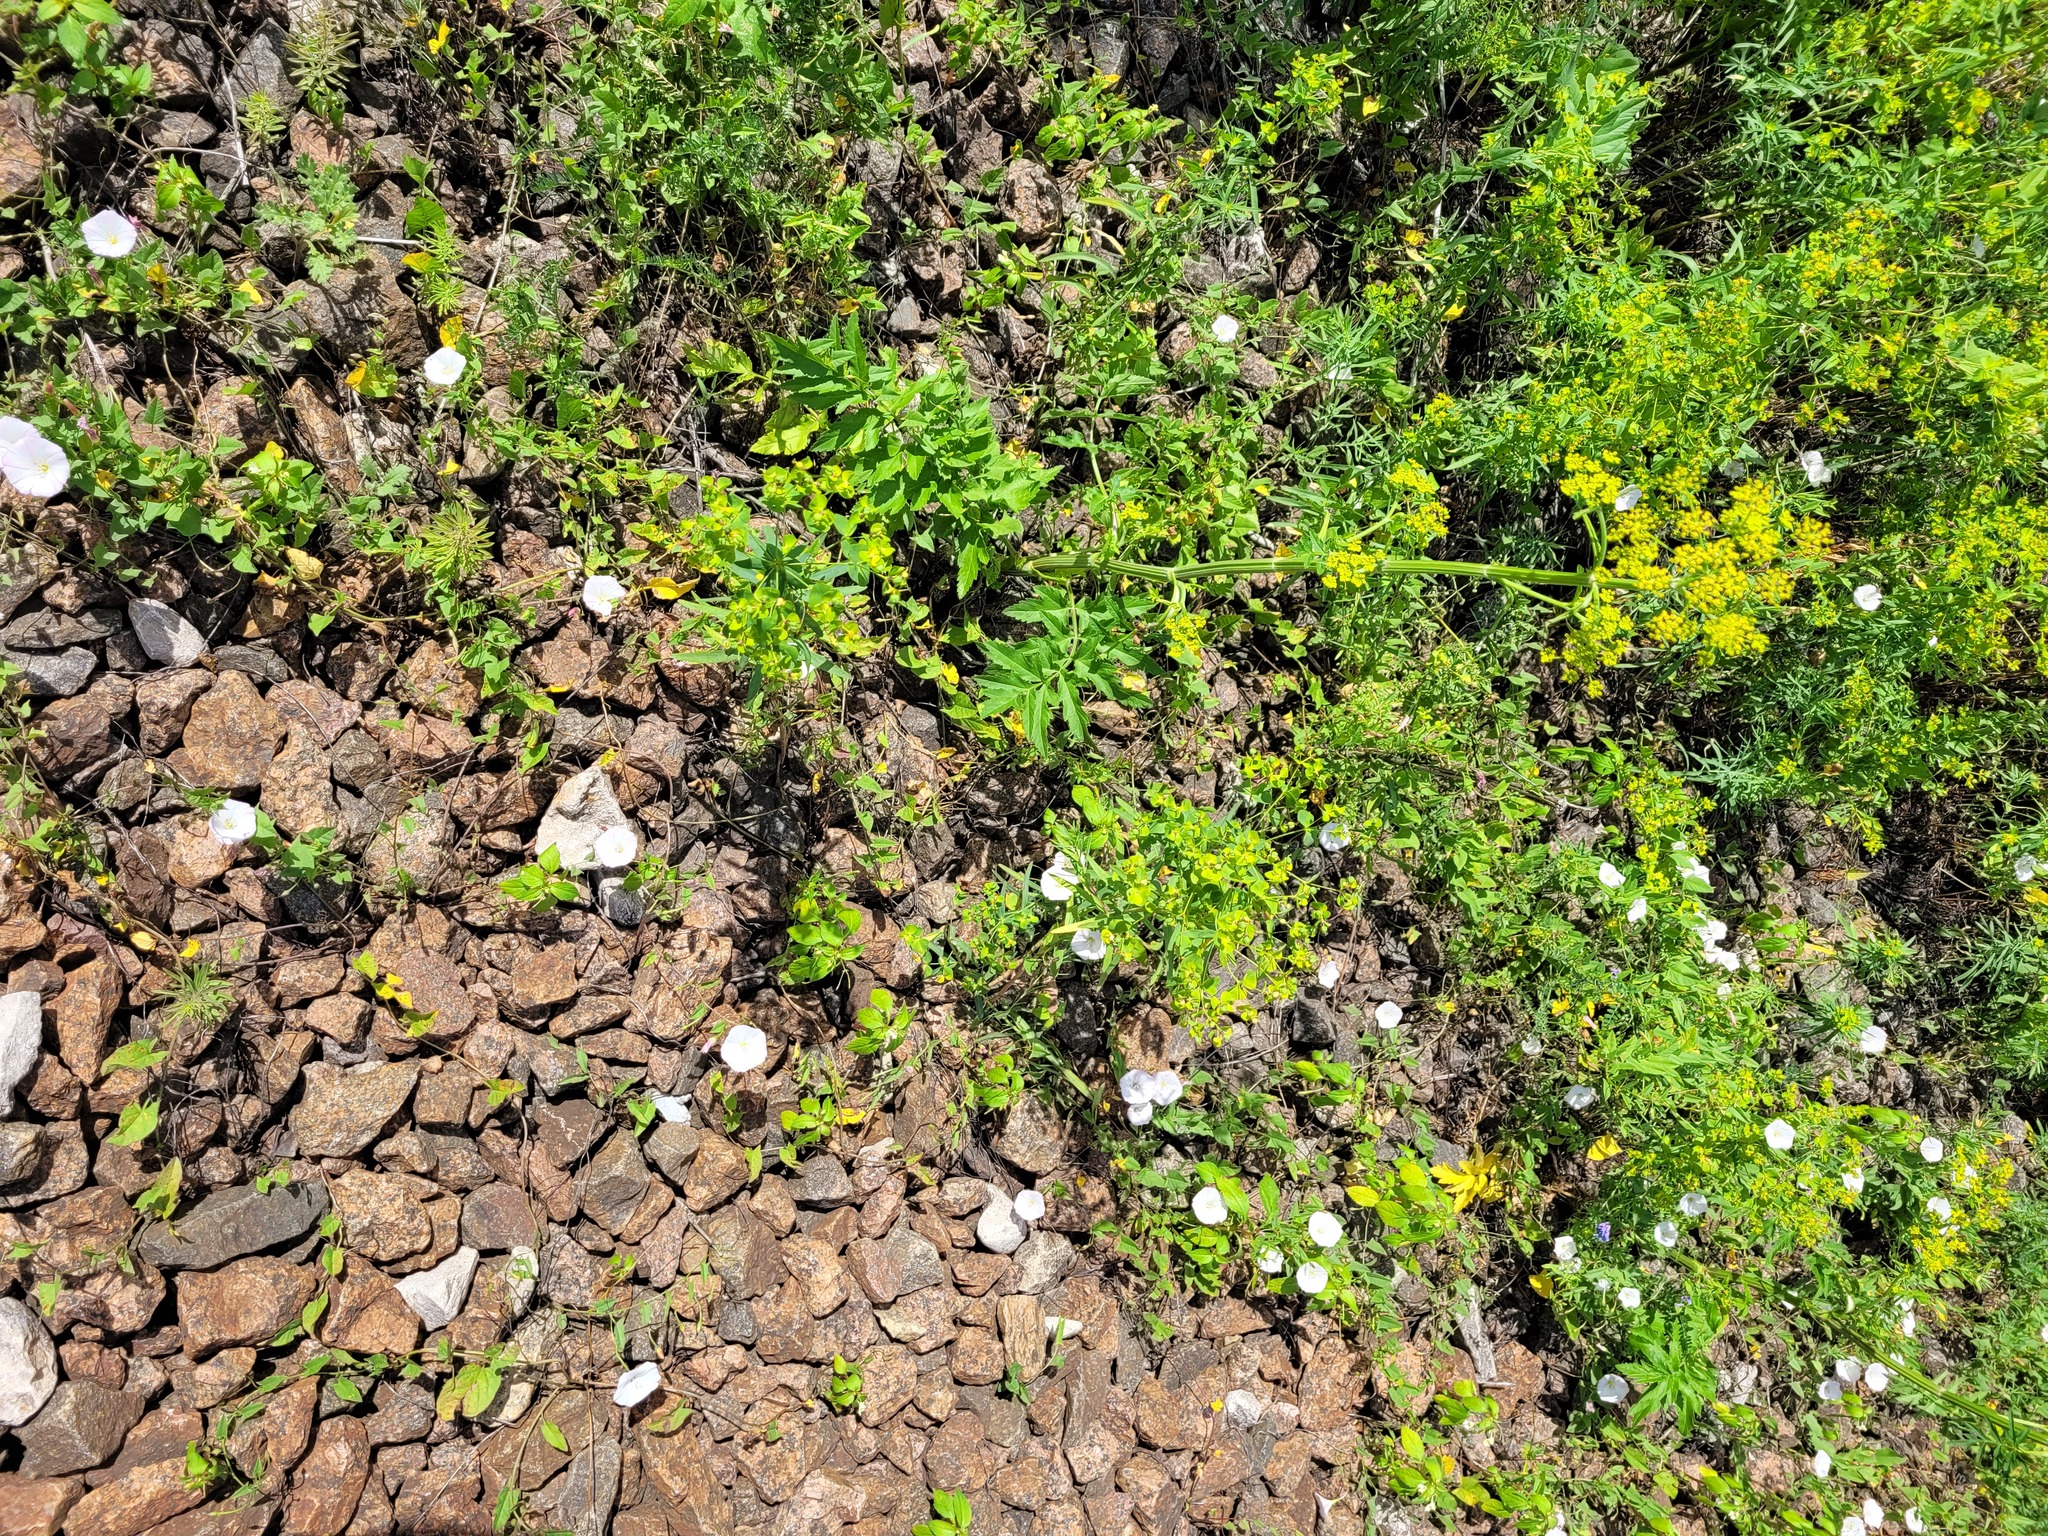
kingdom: Plantae
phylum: Tracheophyta
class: Magnoliopsida
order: Malpighiales
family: Euphorbiaceae
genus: Euphorbia
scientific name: Euphorbia virgata
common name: Leafy spurge
